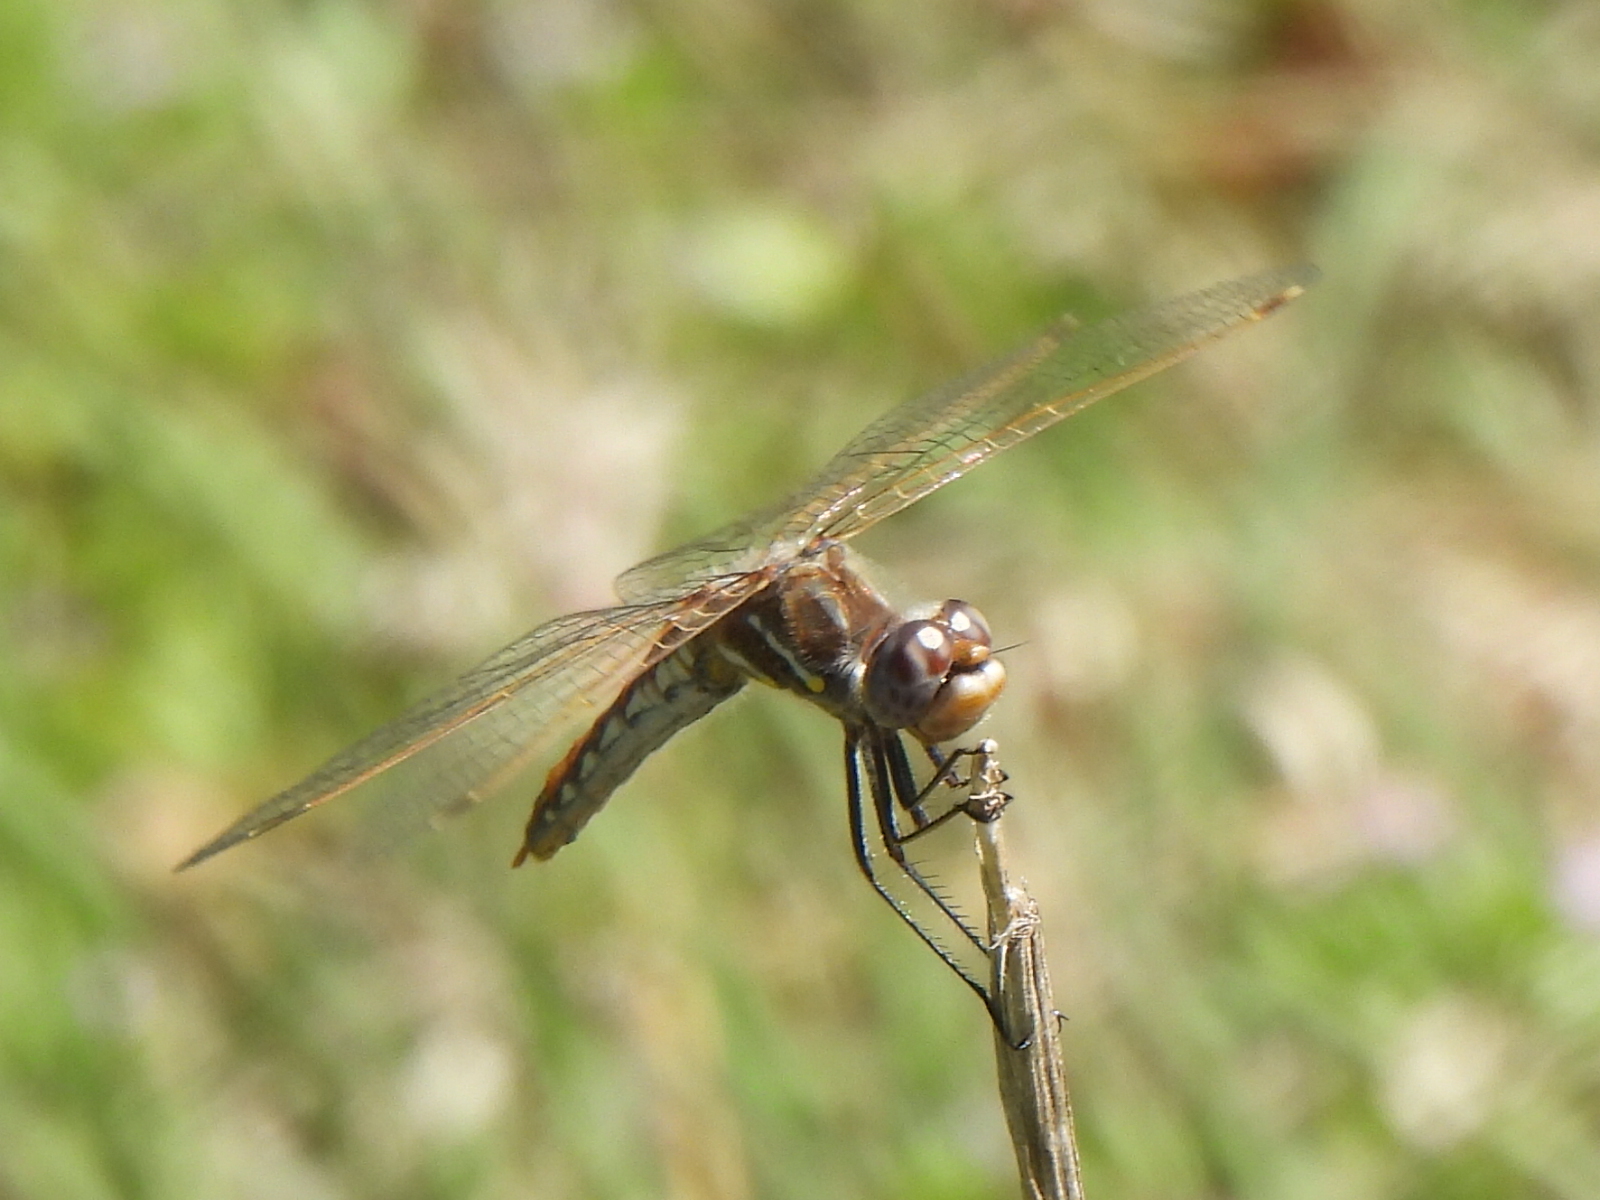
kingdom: Animalia
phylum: Arthropoda
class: Insecta
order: Odonata
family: Libellulidae
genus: Sympetrum
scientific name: Sympetrum corruptum
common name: Variegated meadowhawk
